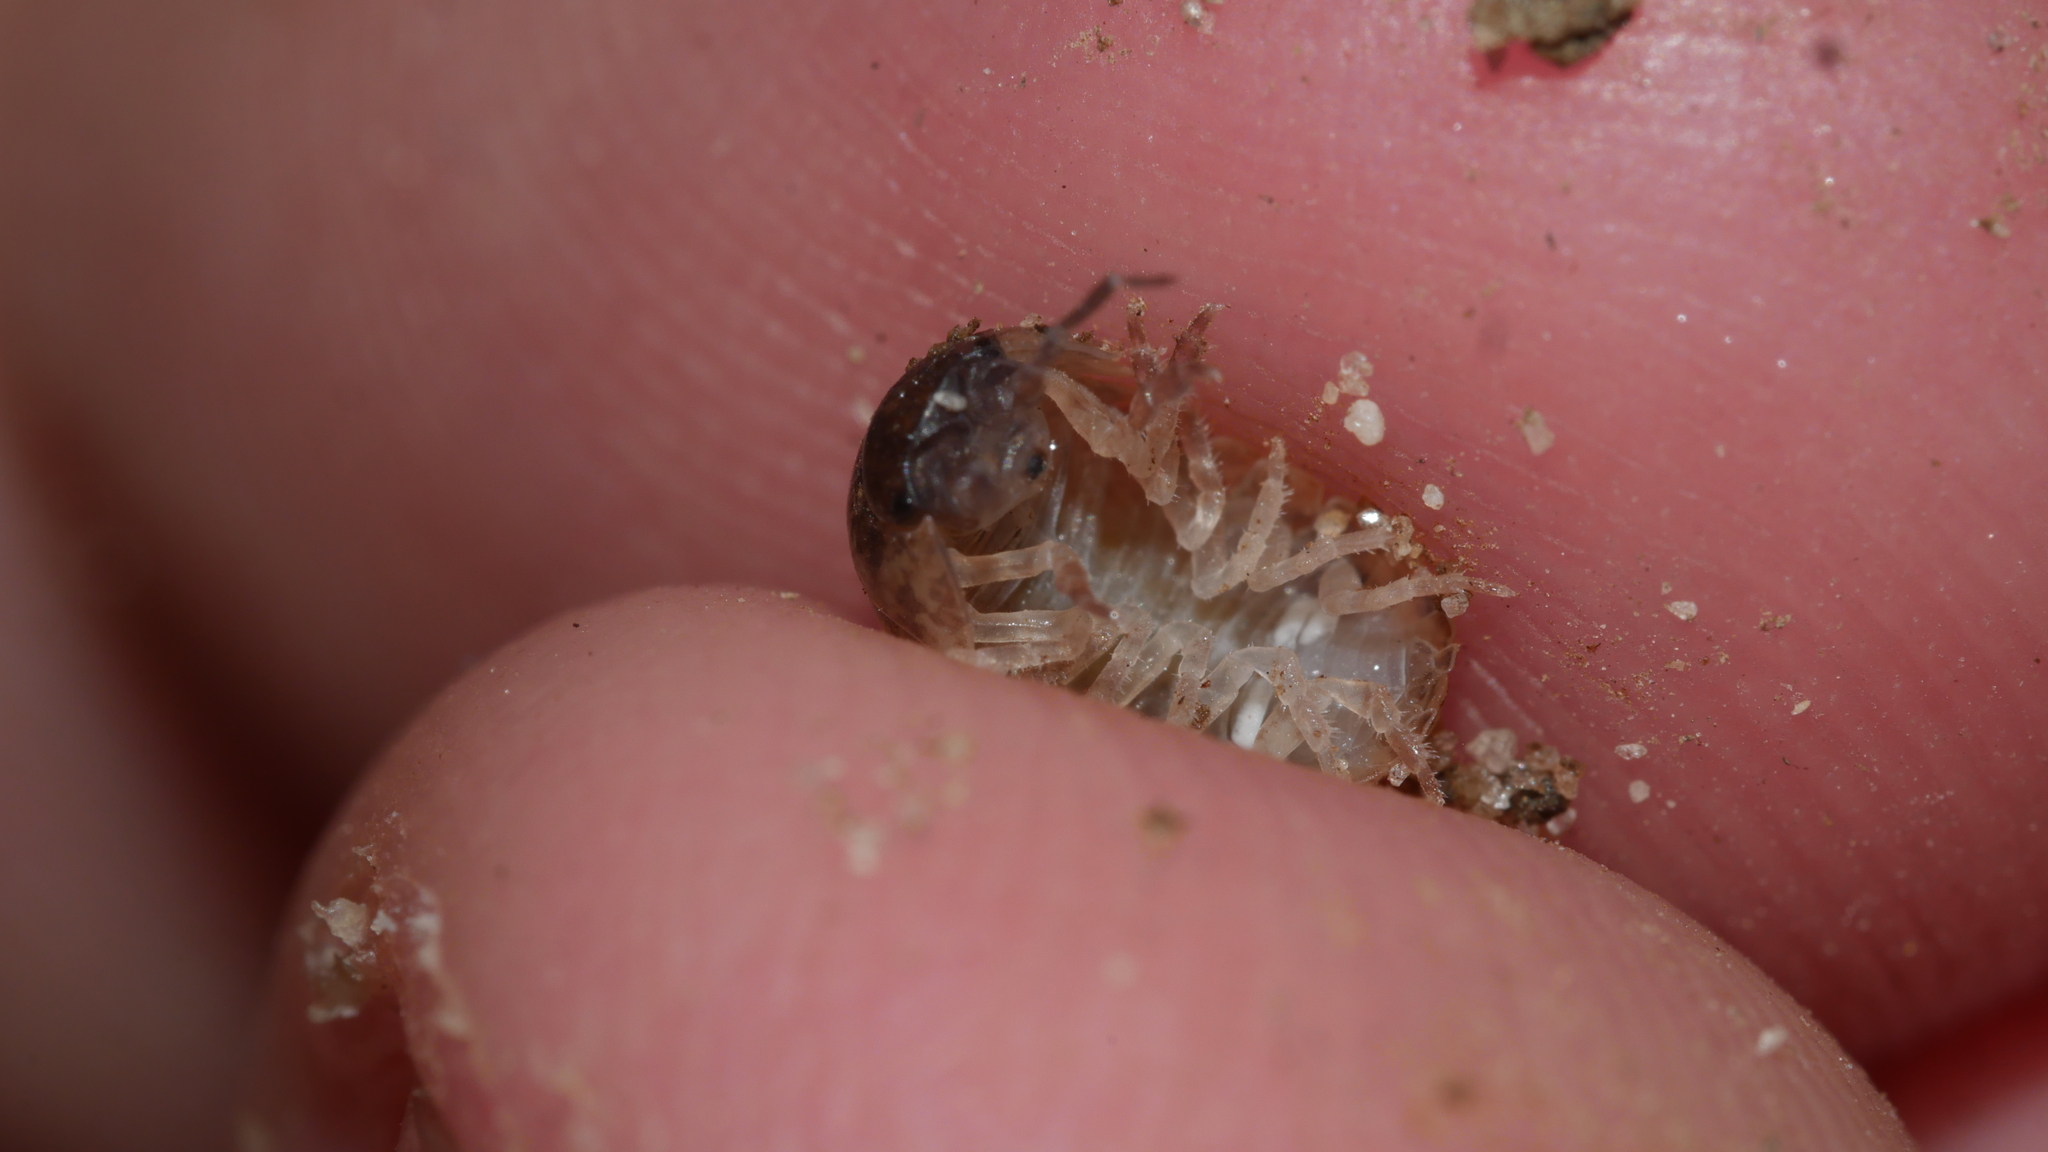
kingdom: Animalia
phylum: Arthropoda
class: Malacostraca
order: Isopoda
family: Armadillidiidae
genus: Armadillidium
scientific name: Armadillidium vulgare
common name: Common pill woodlouse
